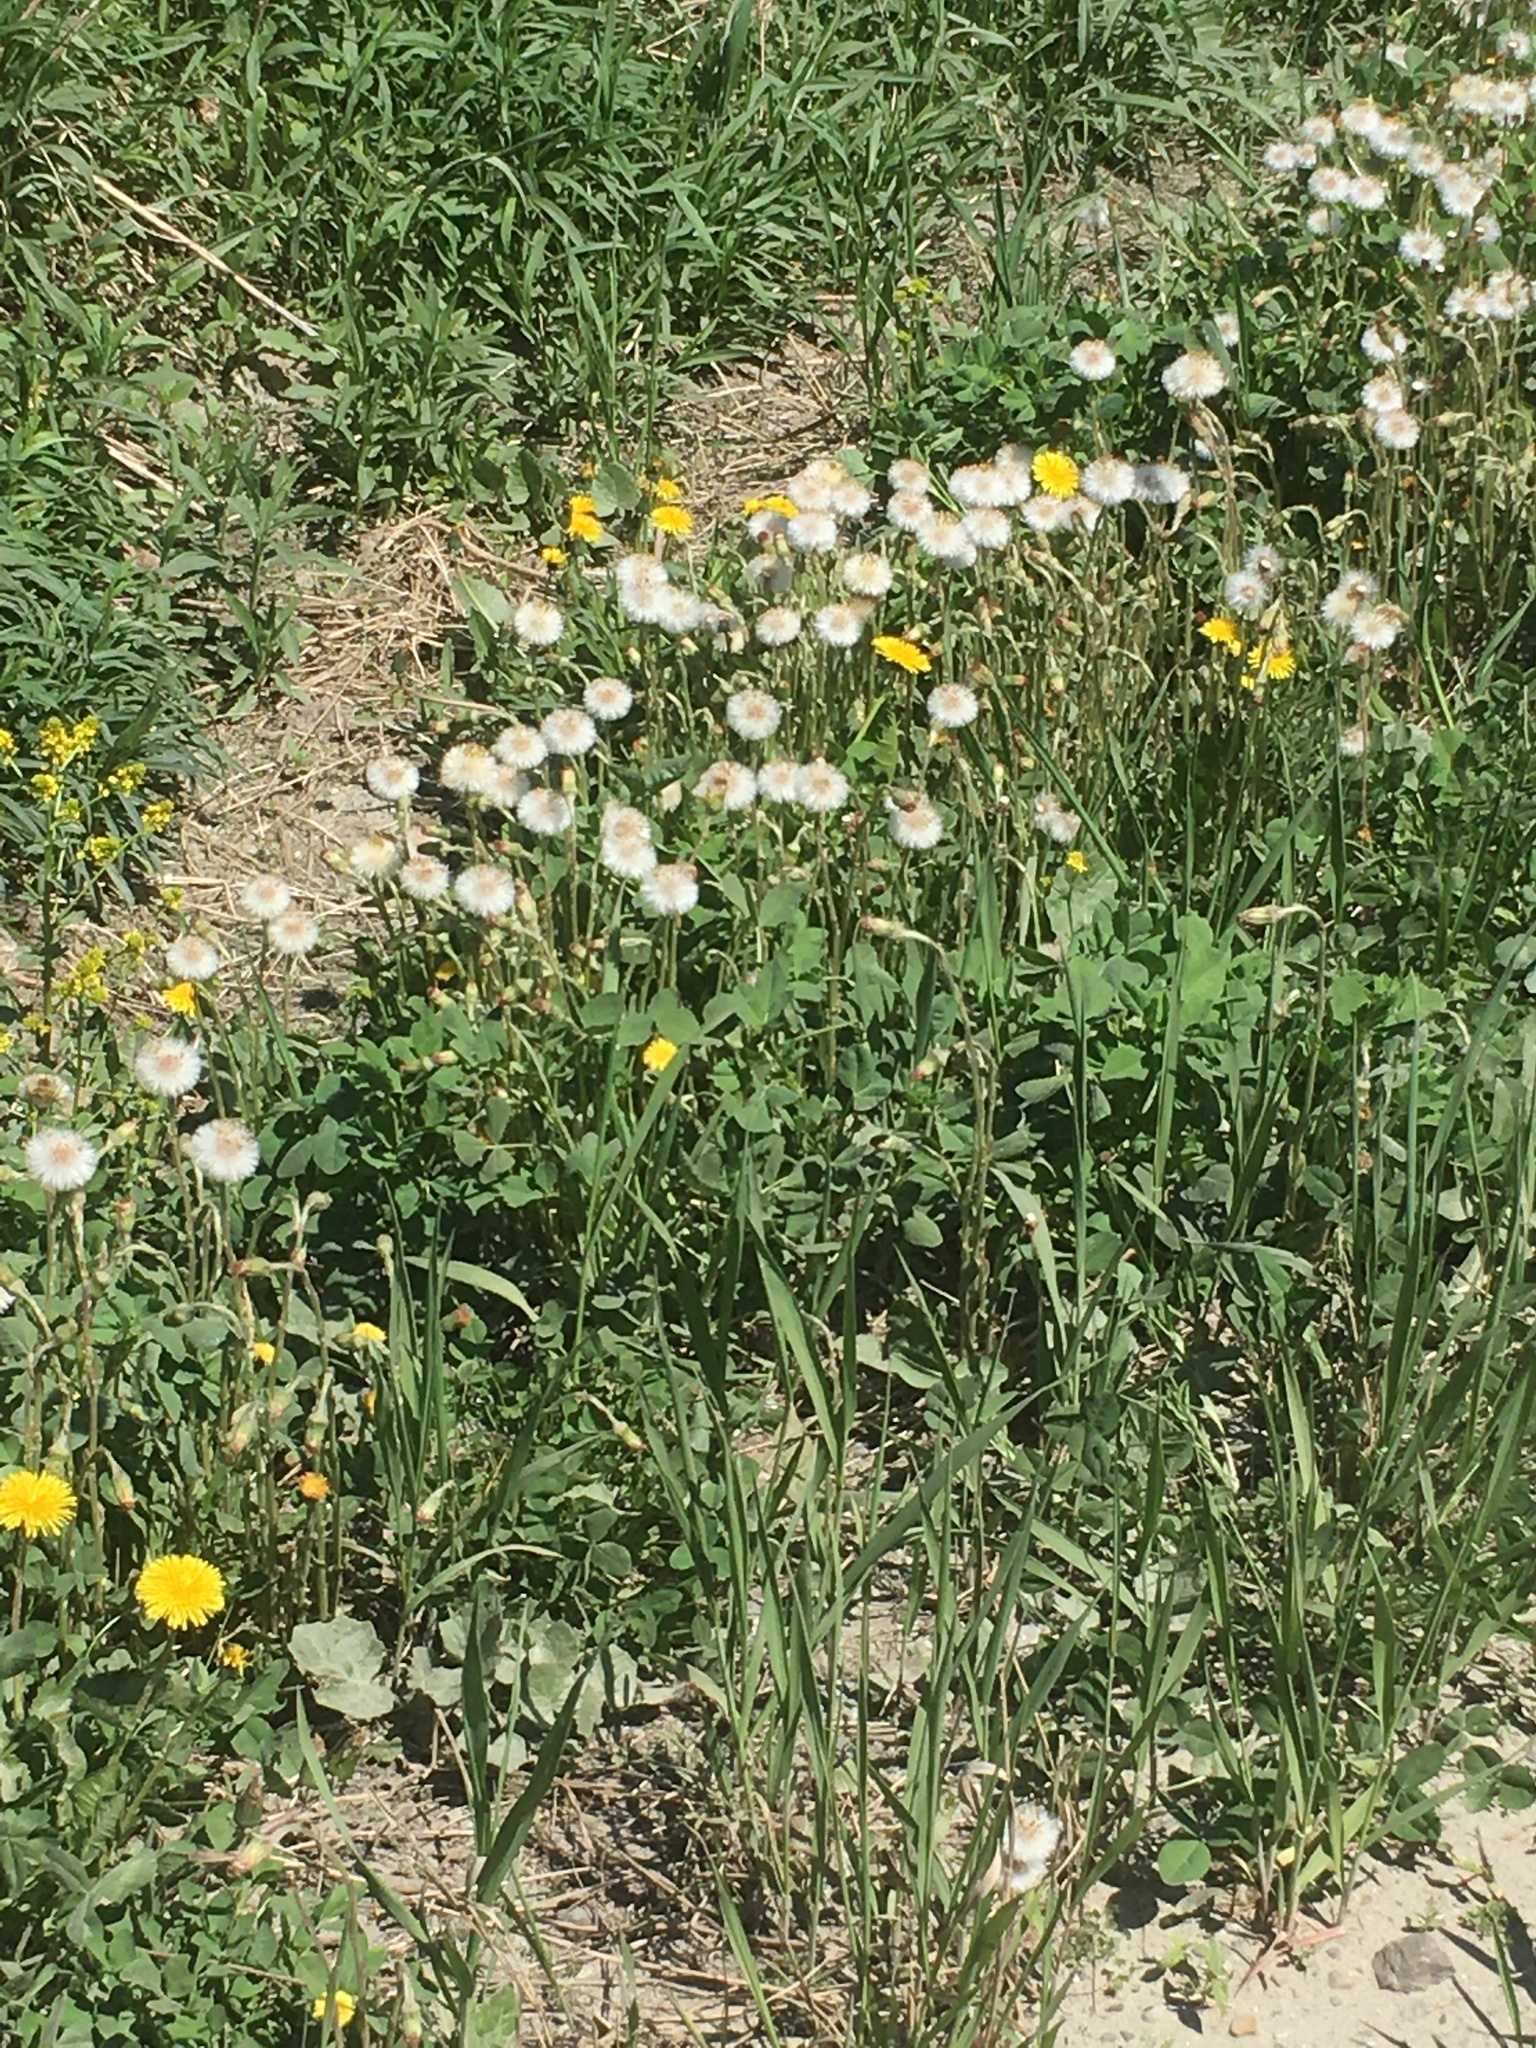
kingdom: Plantae
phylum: Tracheophyta
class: Magnoliopsida
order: Asterales
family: Asteraceae
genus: Tussilago
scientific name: Tussilago farfara
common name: Coltsfoot
